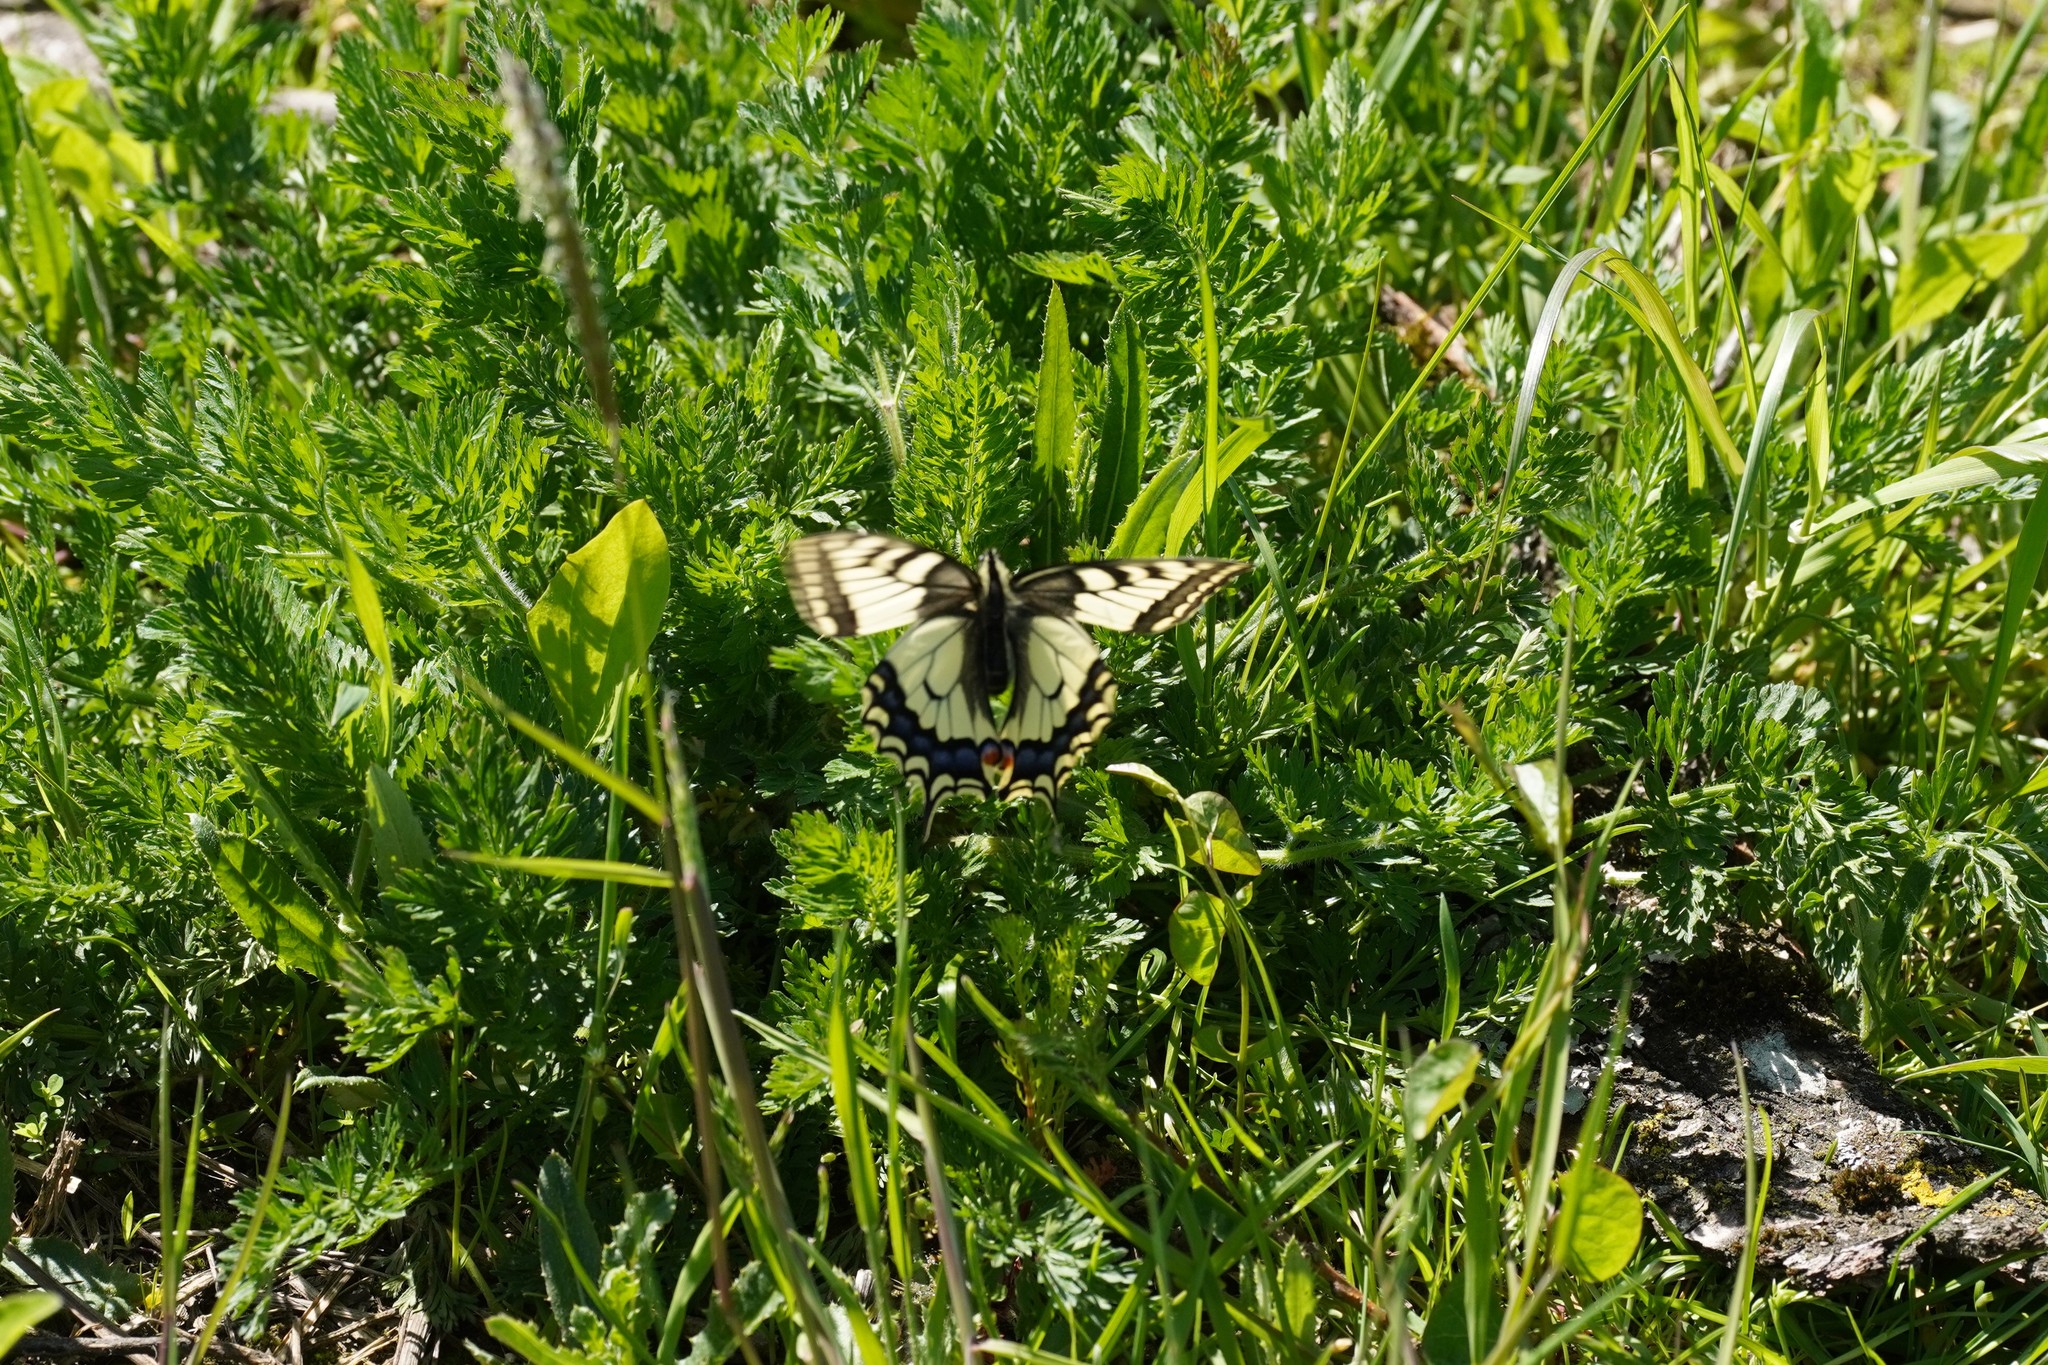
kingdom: Animalia
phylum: Arthropoda
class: Insecta
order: Lepidoptera
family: Papilionidae
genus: Papilio
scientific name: Papilio machaon
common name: Swallowtail
